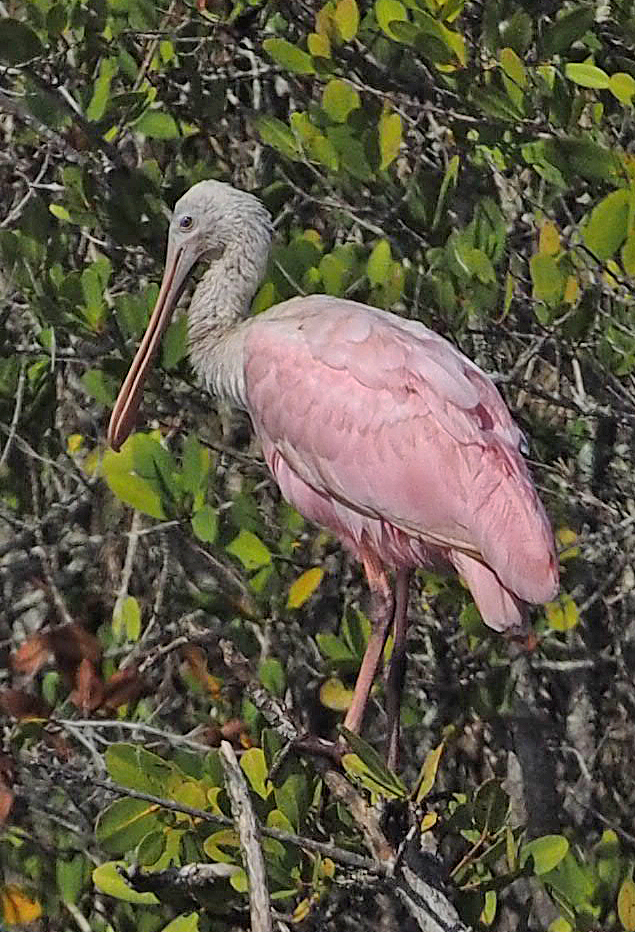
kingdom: Animalia
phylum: Chordata
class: Aves
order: Pelecaniformes
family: Threskiornithidae
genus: Platalea
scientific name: Platalea ajaja
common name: Roseate spoonbill
